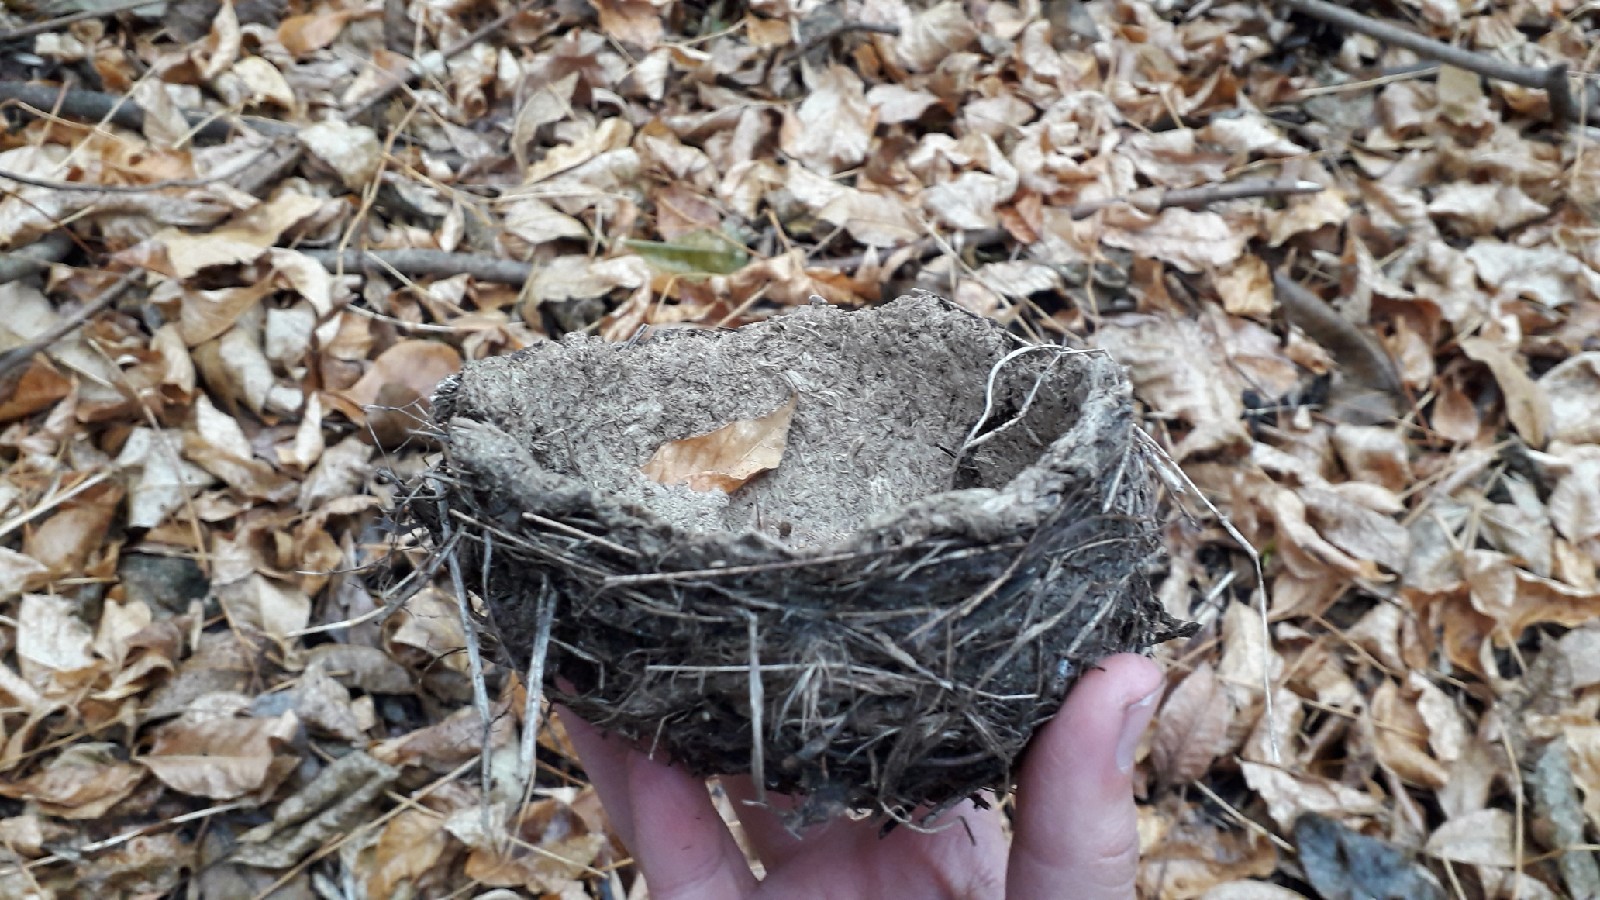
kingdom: Animalia
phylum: Chordata
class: Aves
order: Passeriformes
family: Turdidae
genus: Turdus
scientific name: Turdus philomelos
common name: Song thrush
